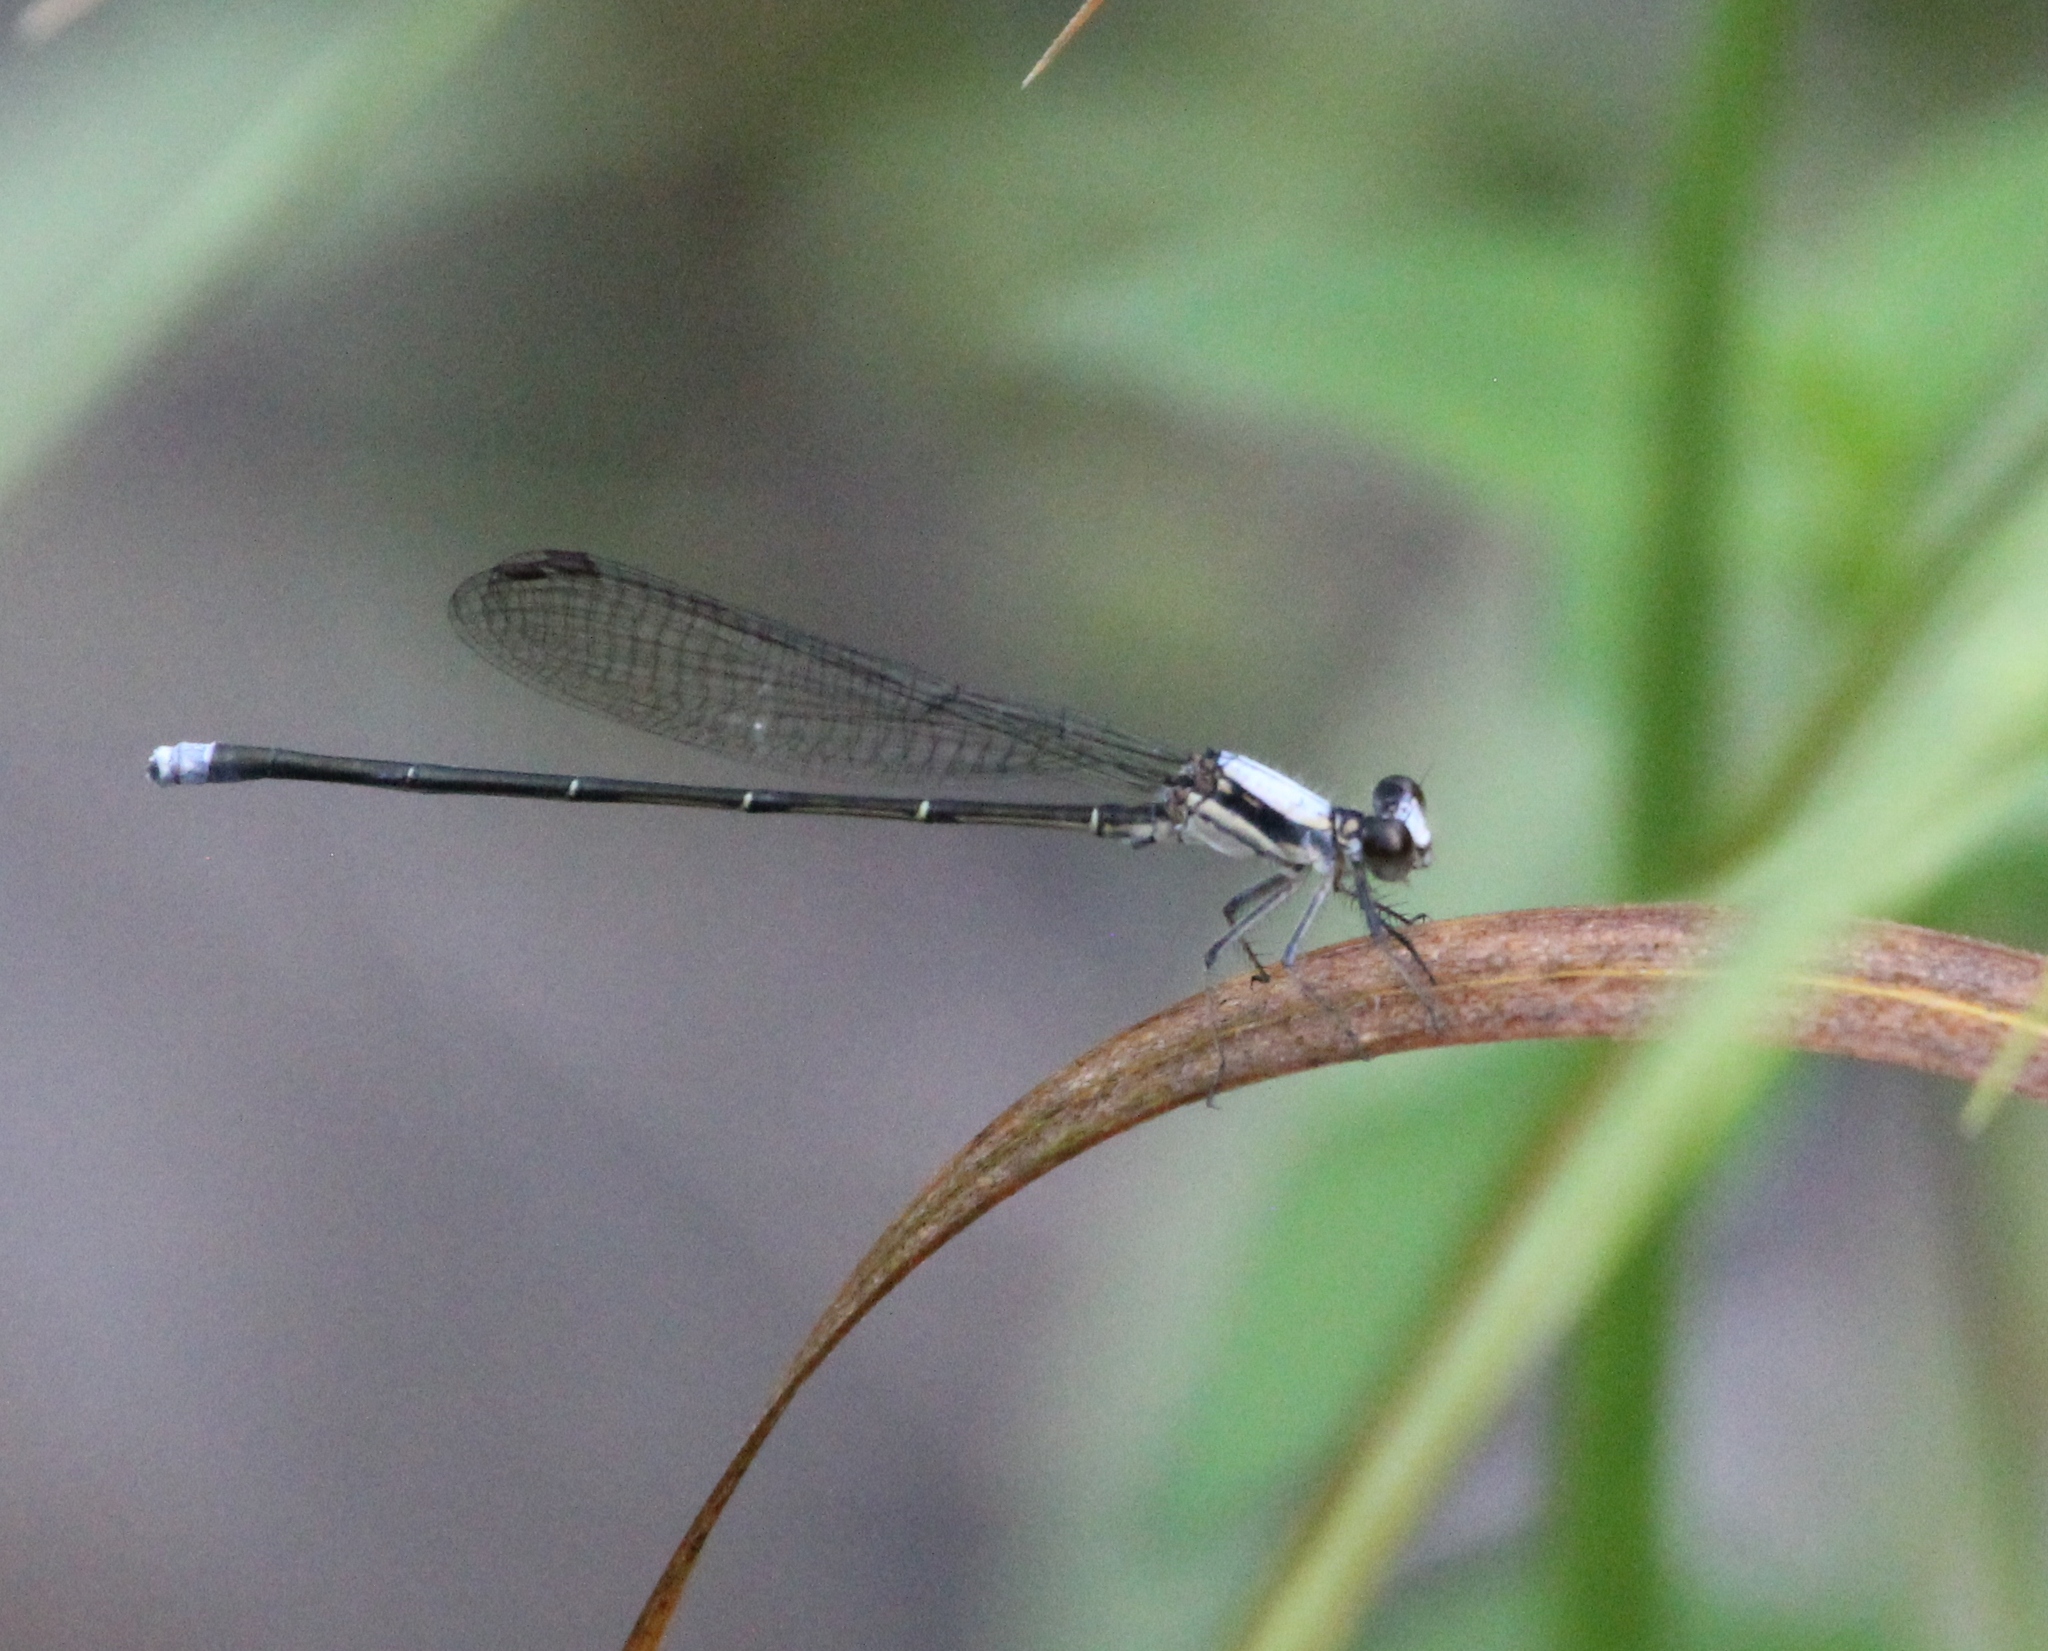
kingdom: Animalia
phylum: Arthropoda
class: Insecta
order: Odonata
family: Coenagrionidae
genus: Argia
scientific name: Argia moesta
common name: Powdered dancer
